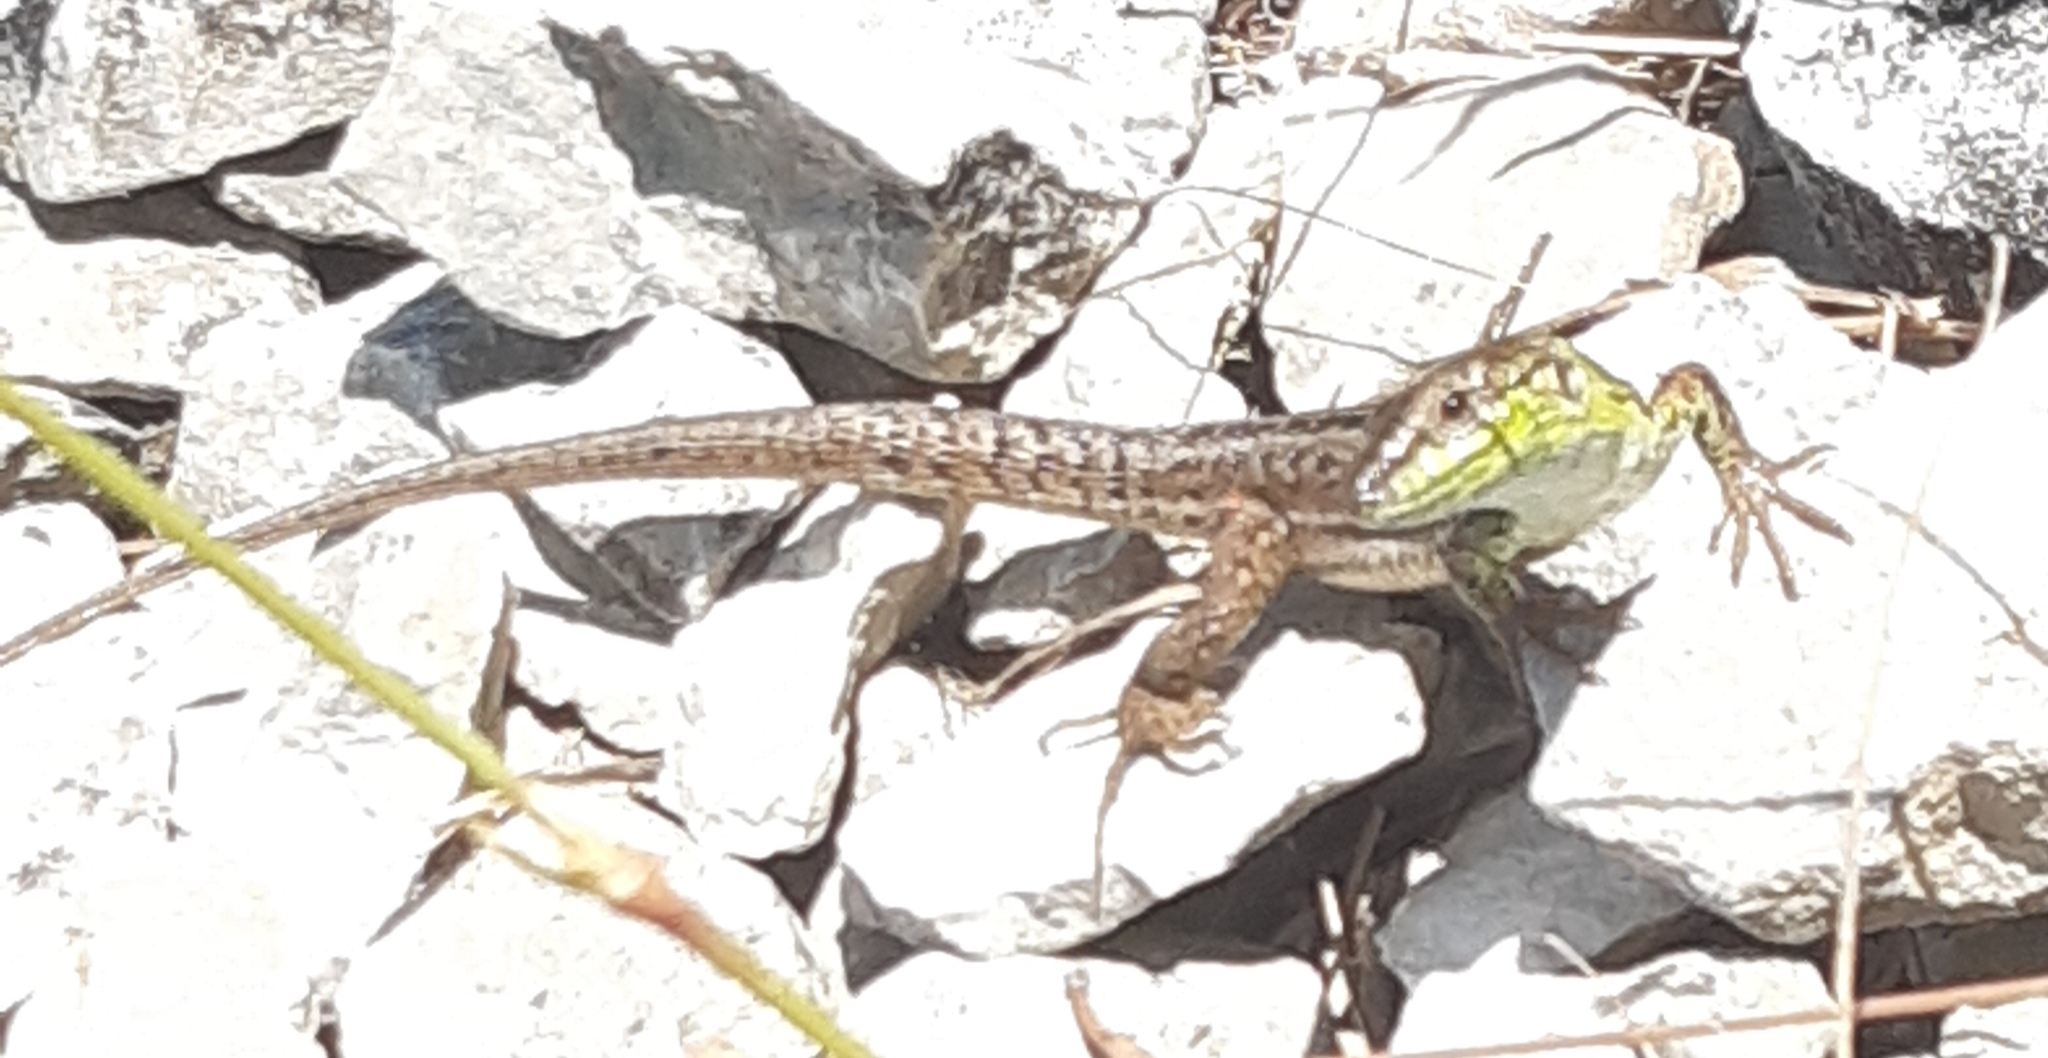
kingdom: Animalia
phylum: Chordata
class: Squamata
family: Lacertidae
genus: Podarcis
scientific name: Podarcis siculus
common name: Italian wall lizard
